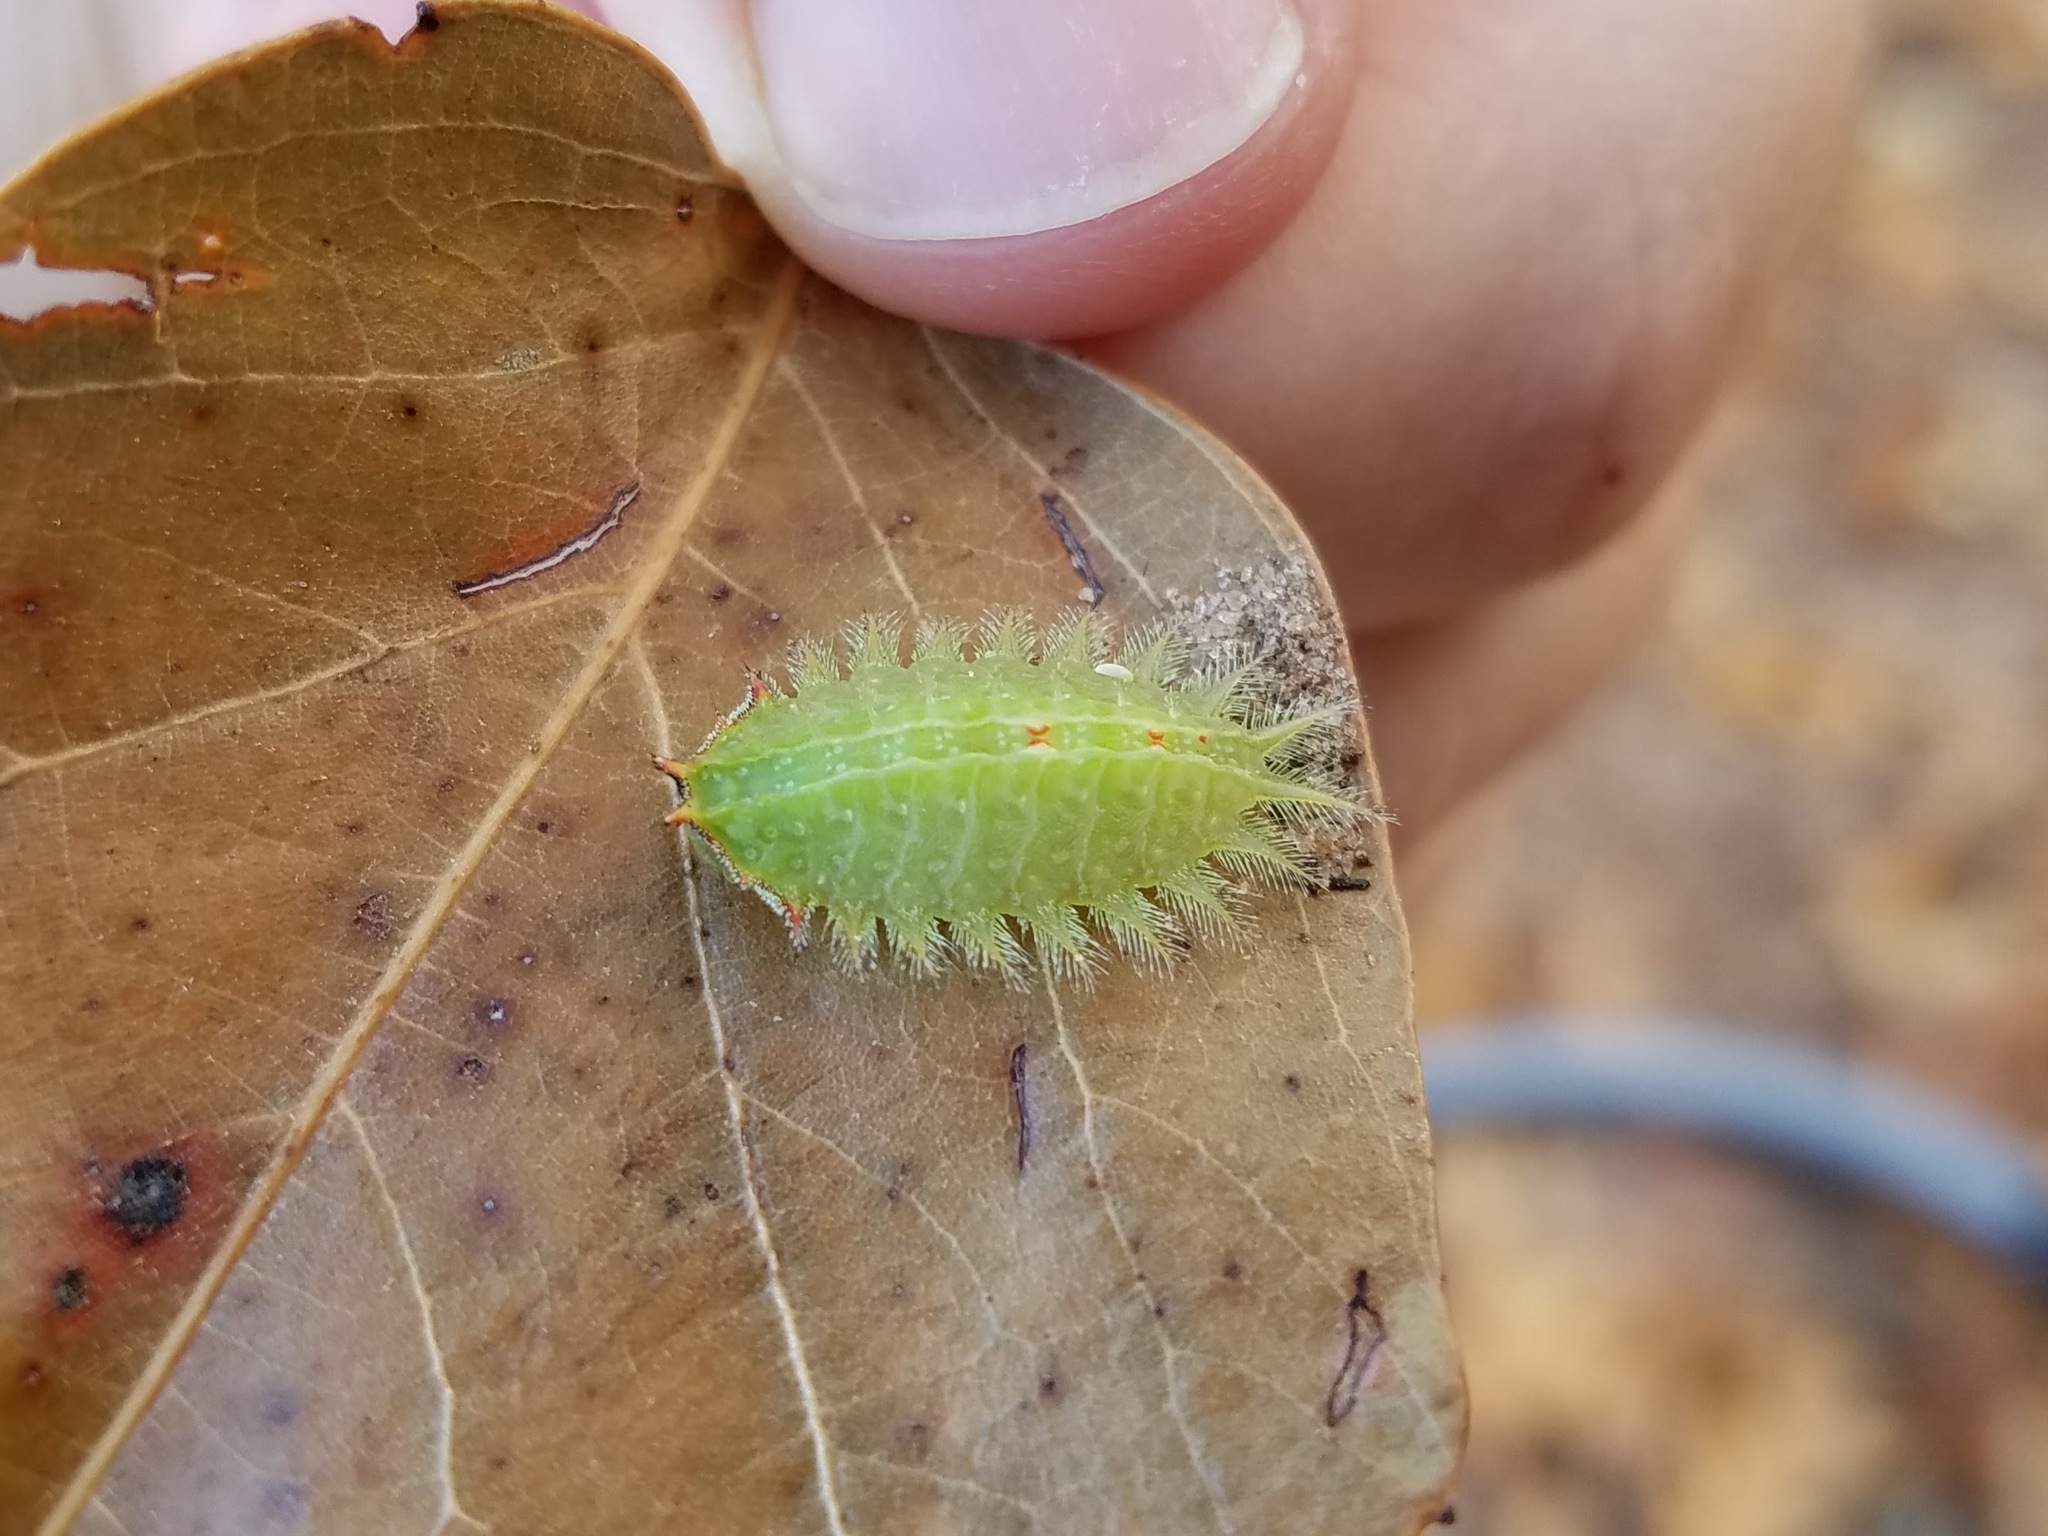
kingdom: Animalia
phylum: Arthropoda
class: Insecta
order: Lepidoptera
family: Limacodidae
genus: Isa
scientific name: Isa textula
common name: Crowned slug moth
